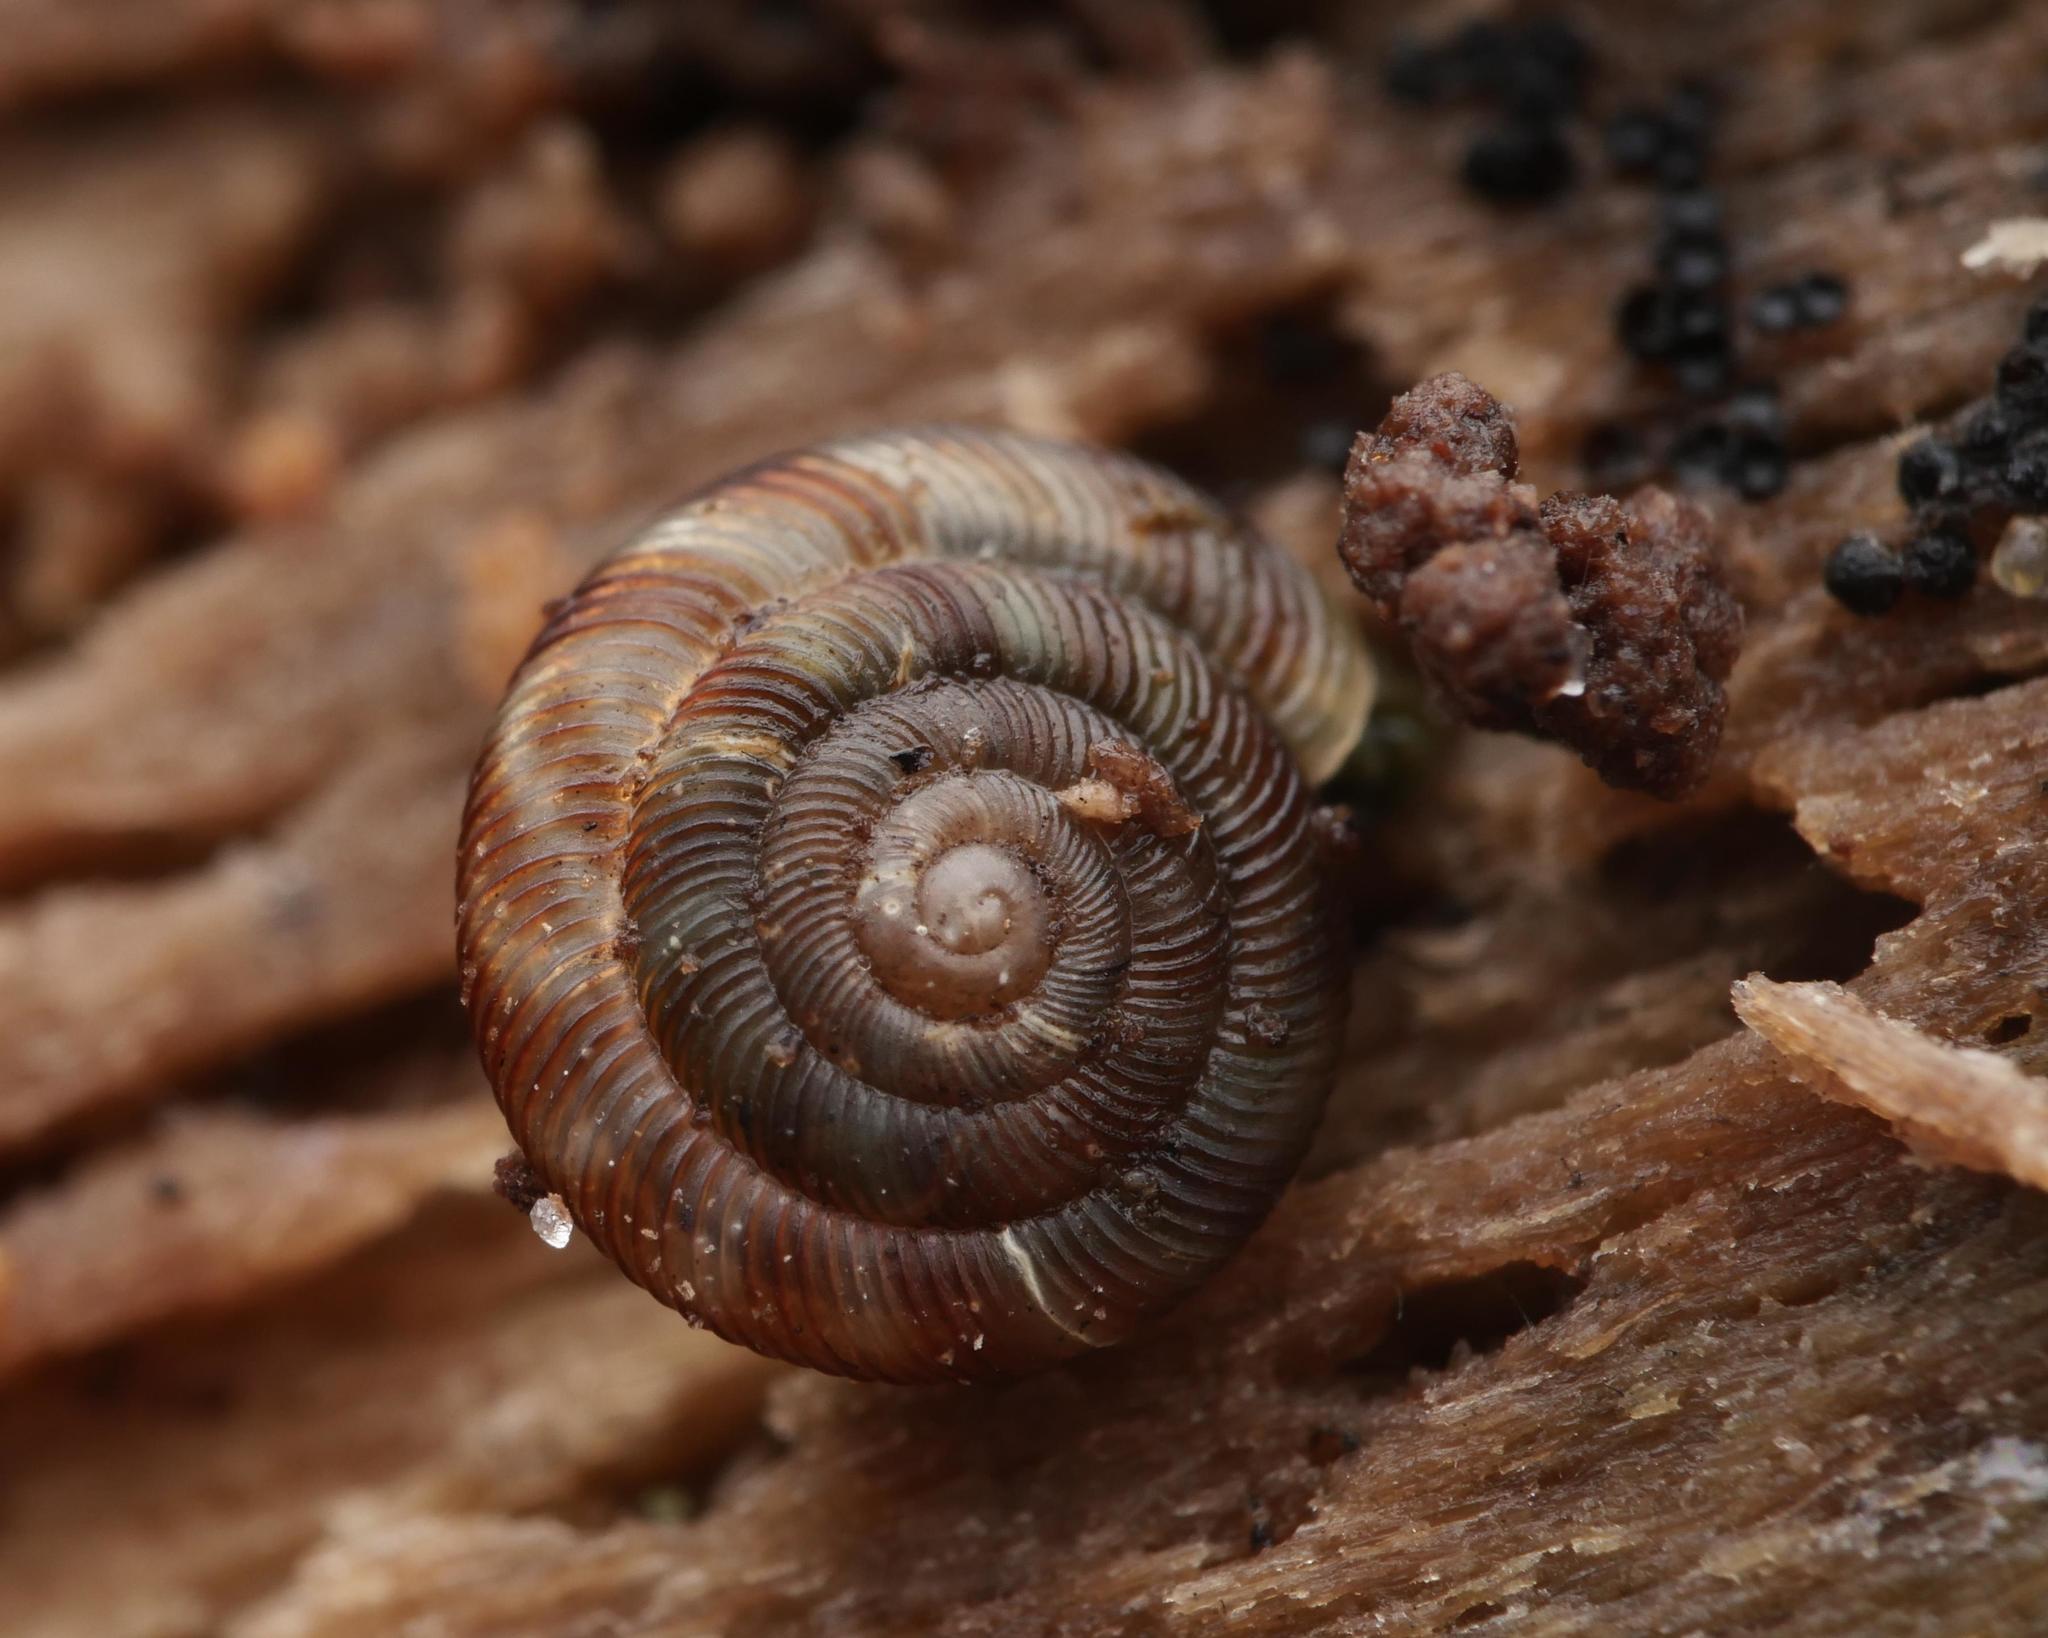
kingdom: Animalia
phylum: Mollusca
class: Gastropoda
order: Stylommatophora
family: Discidae
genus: Discus
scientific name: Discus rotundatus
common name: Rounded snail
